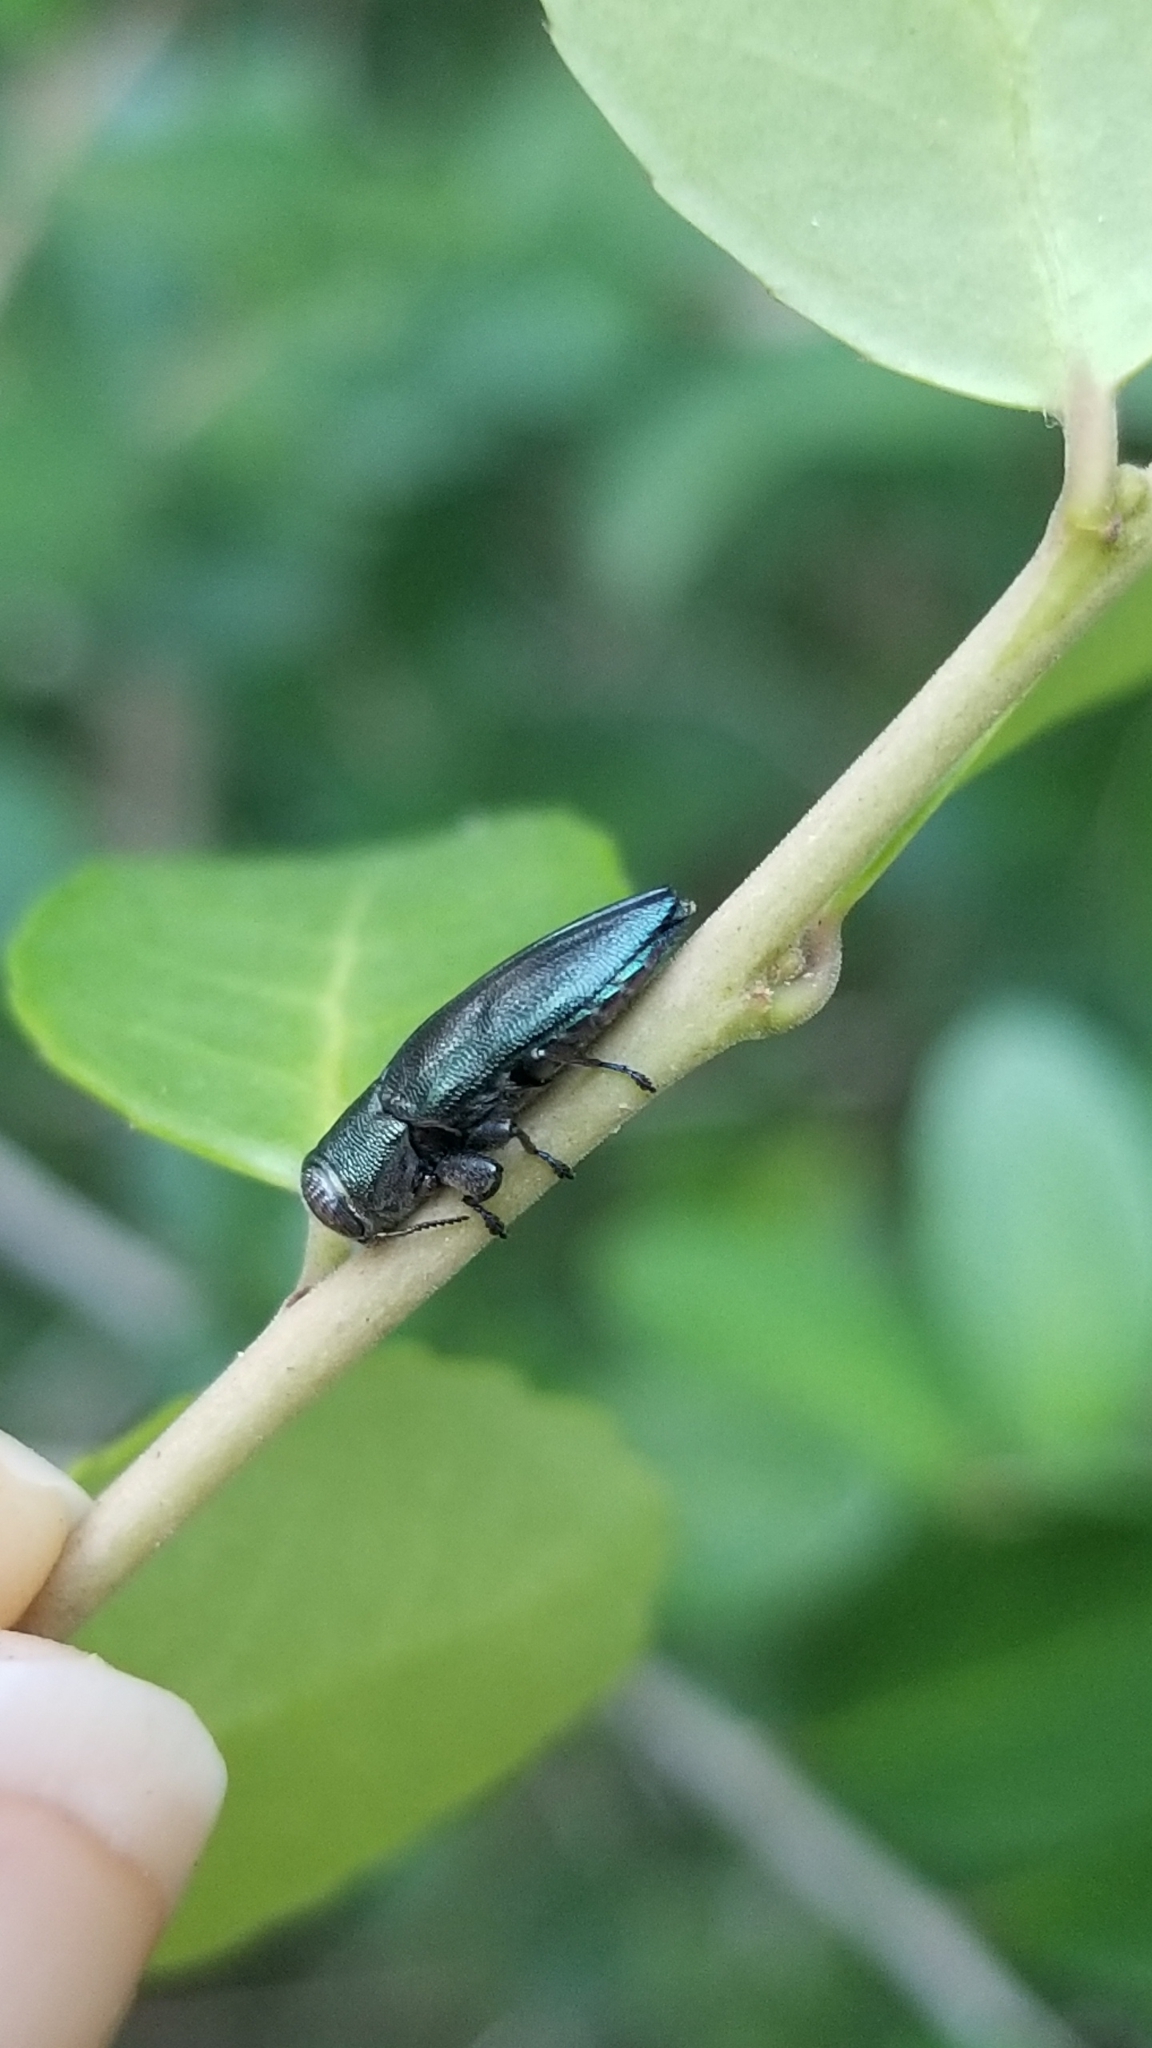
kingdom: Animalia
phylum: Arthropoda
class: Insecta
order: Coleoptera
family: Buprestidae
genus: Chrysobothris
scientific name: Chrysobothris analis
